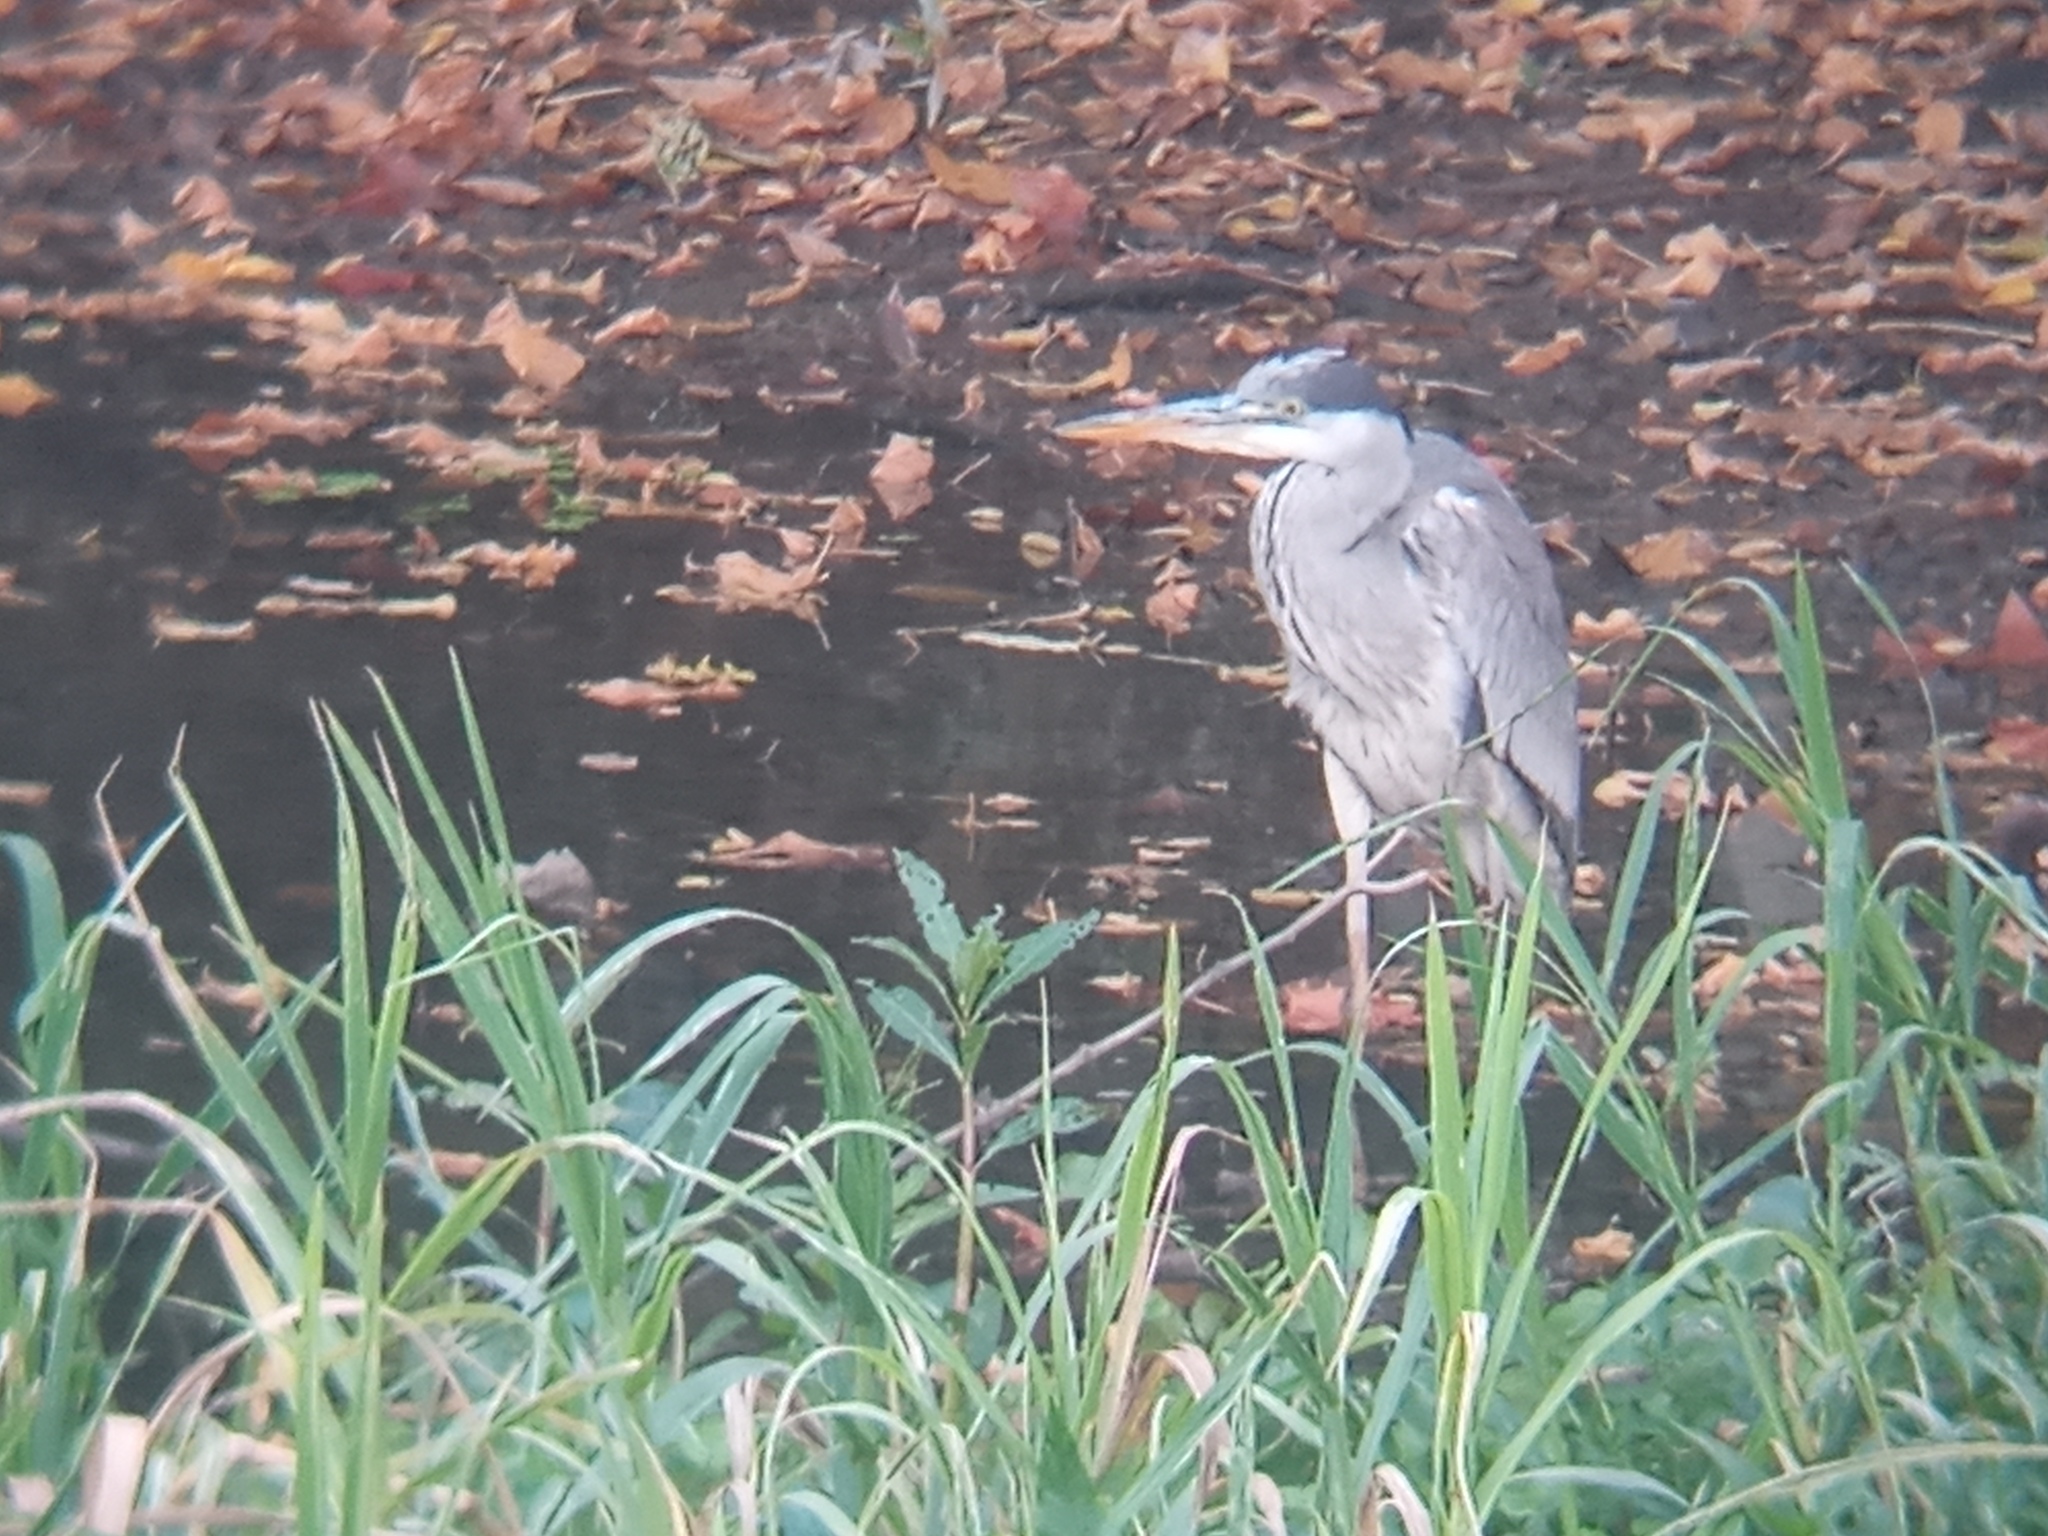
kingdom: Animalia
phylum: Chordata
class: Aves
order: Pelecaniformes
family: Ardeidae
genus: Ardea
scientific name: Ardea cocoi
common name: Cocoi heron
